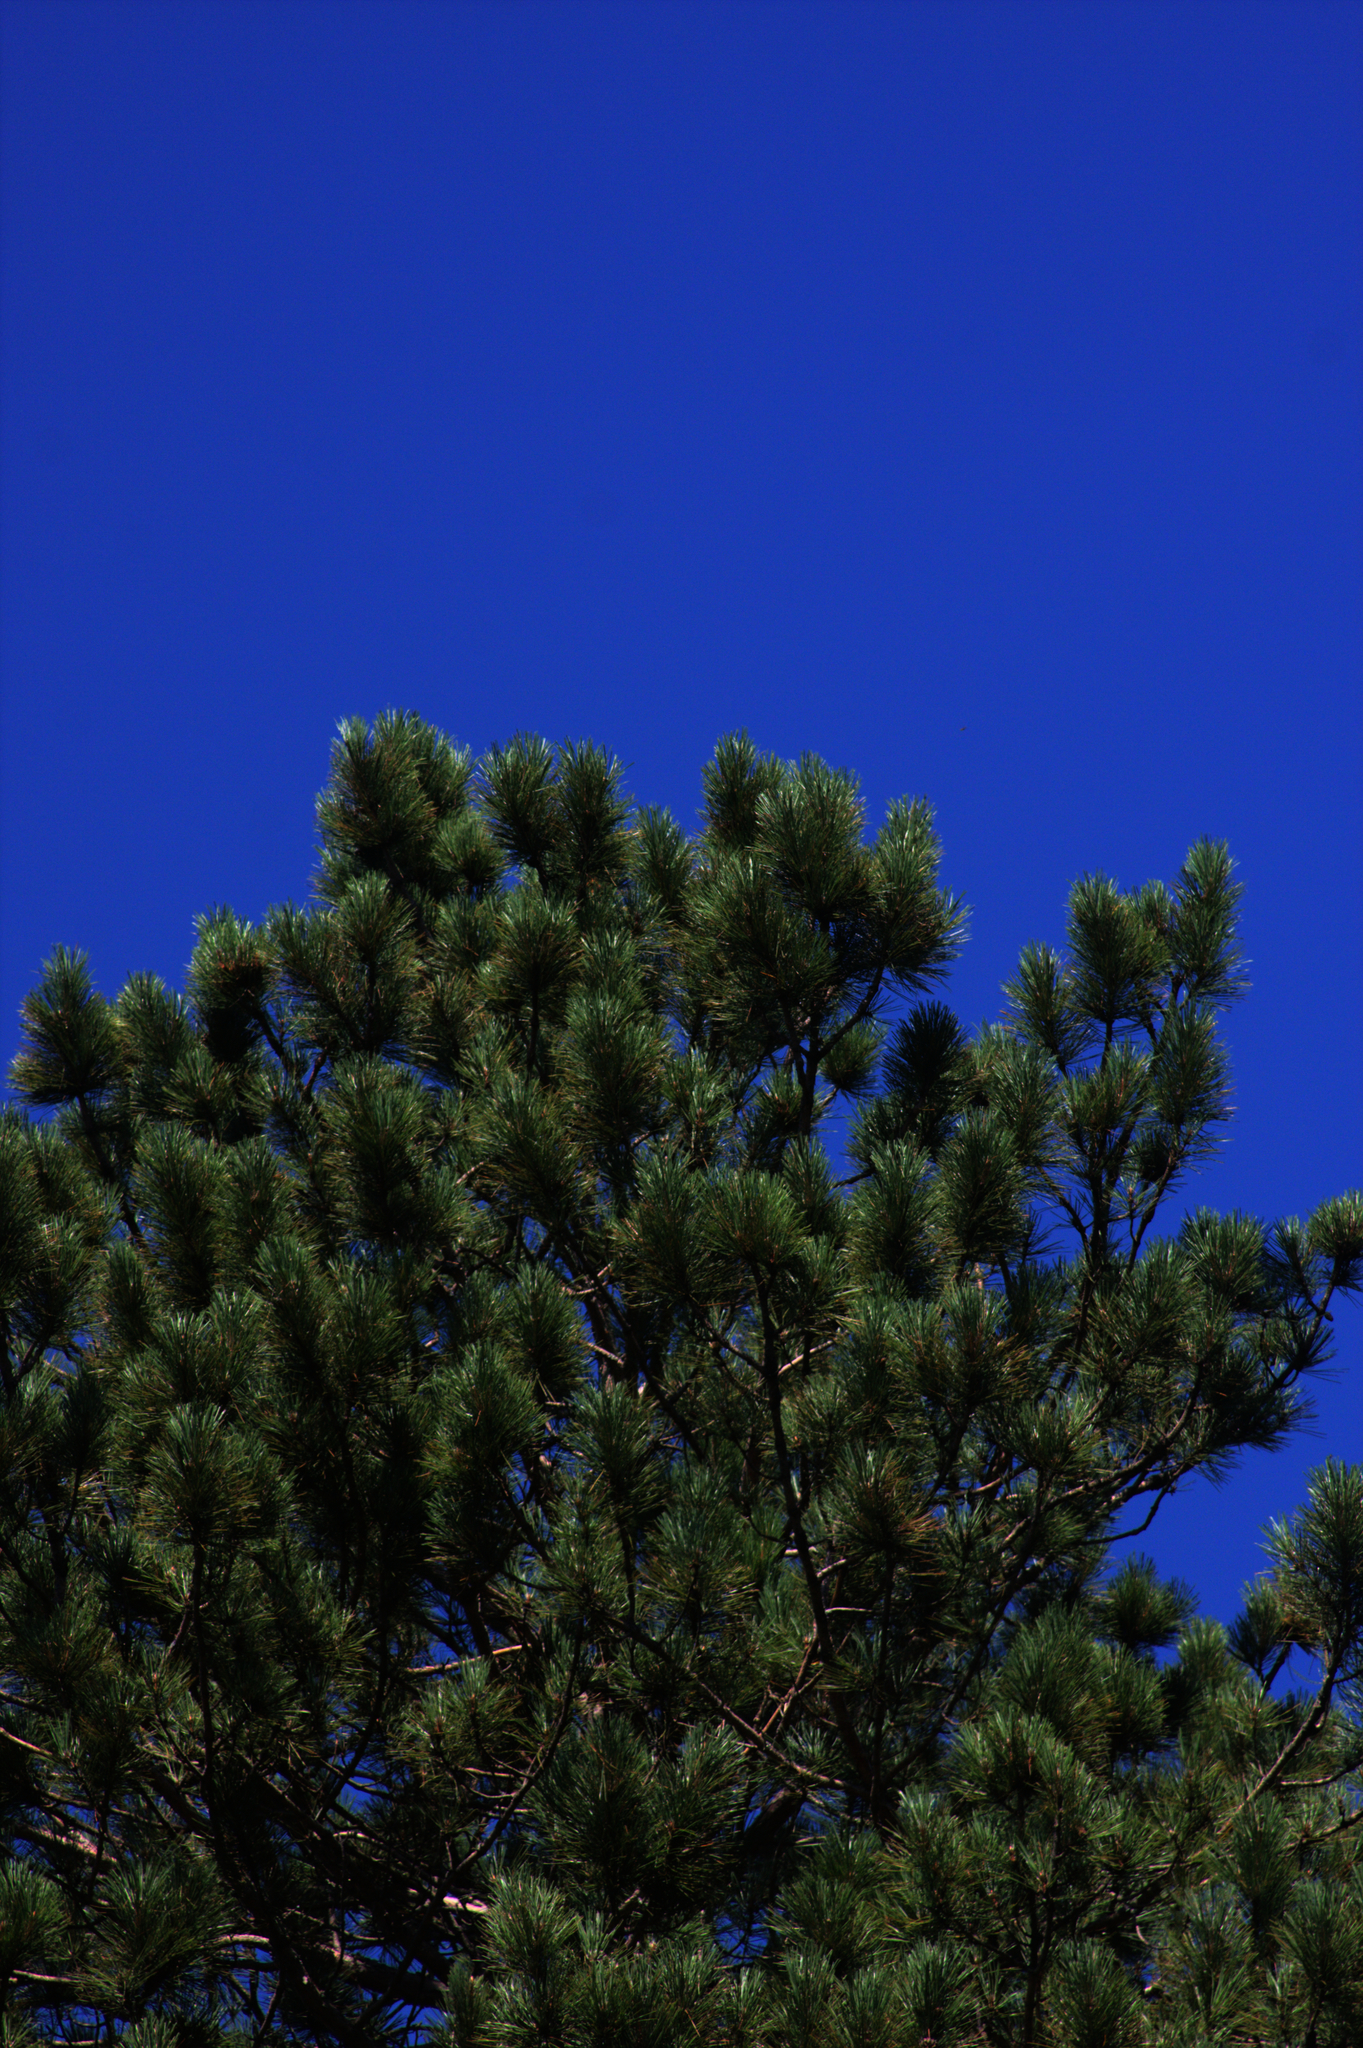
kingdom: Plantae
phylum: Tracheophyta
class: Pinopsida
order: Pinales
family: Pinaceae
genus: Pinus
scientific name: Pinus resinosa
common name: Norway pine
